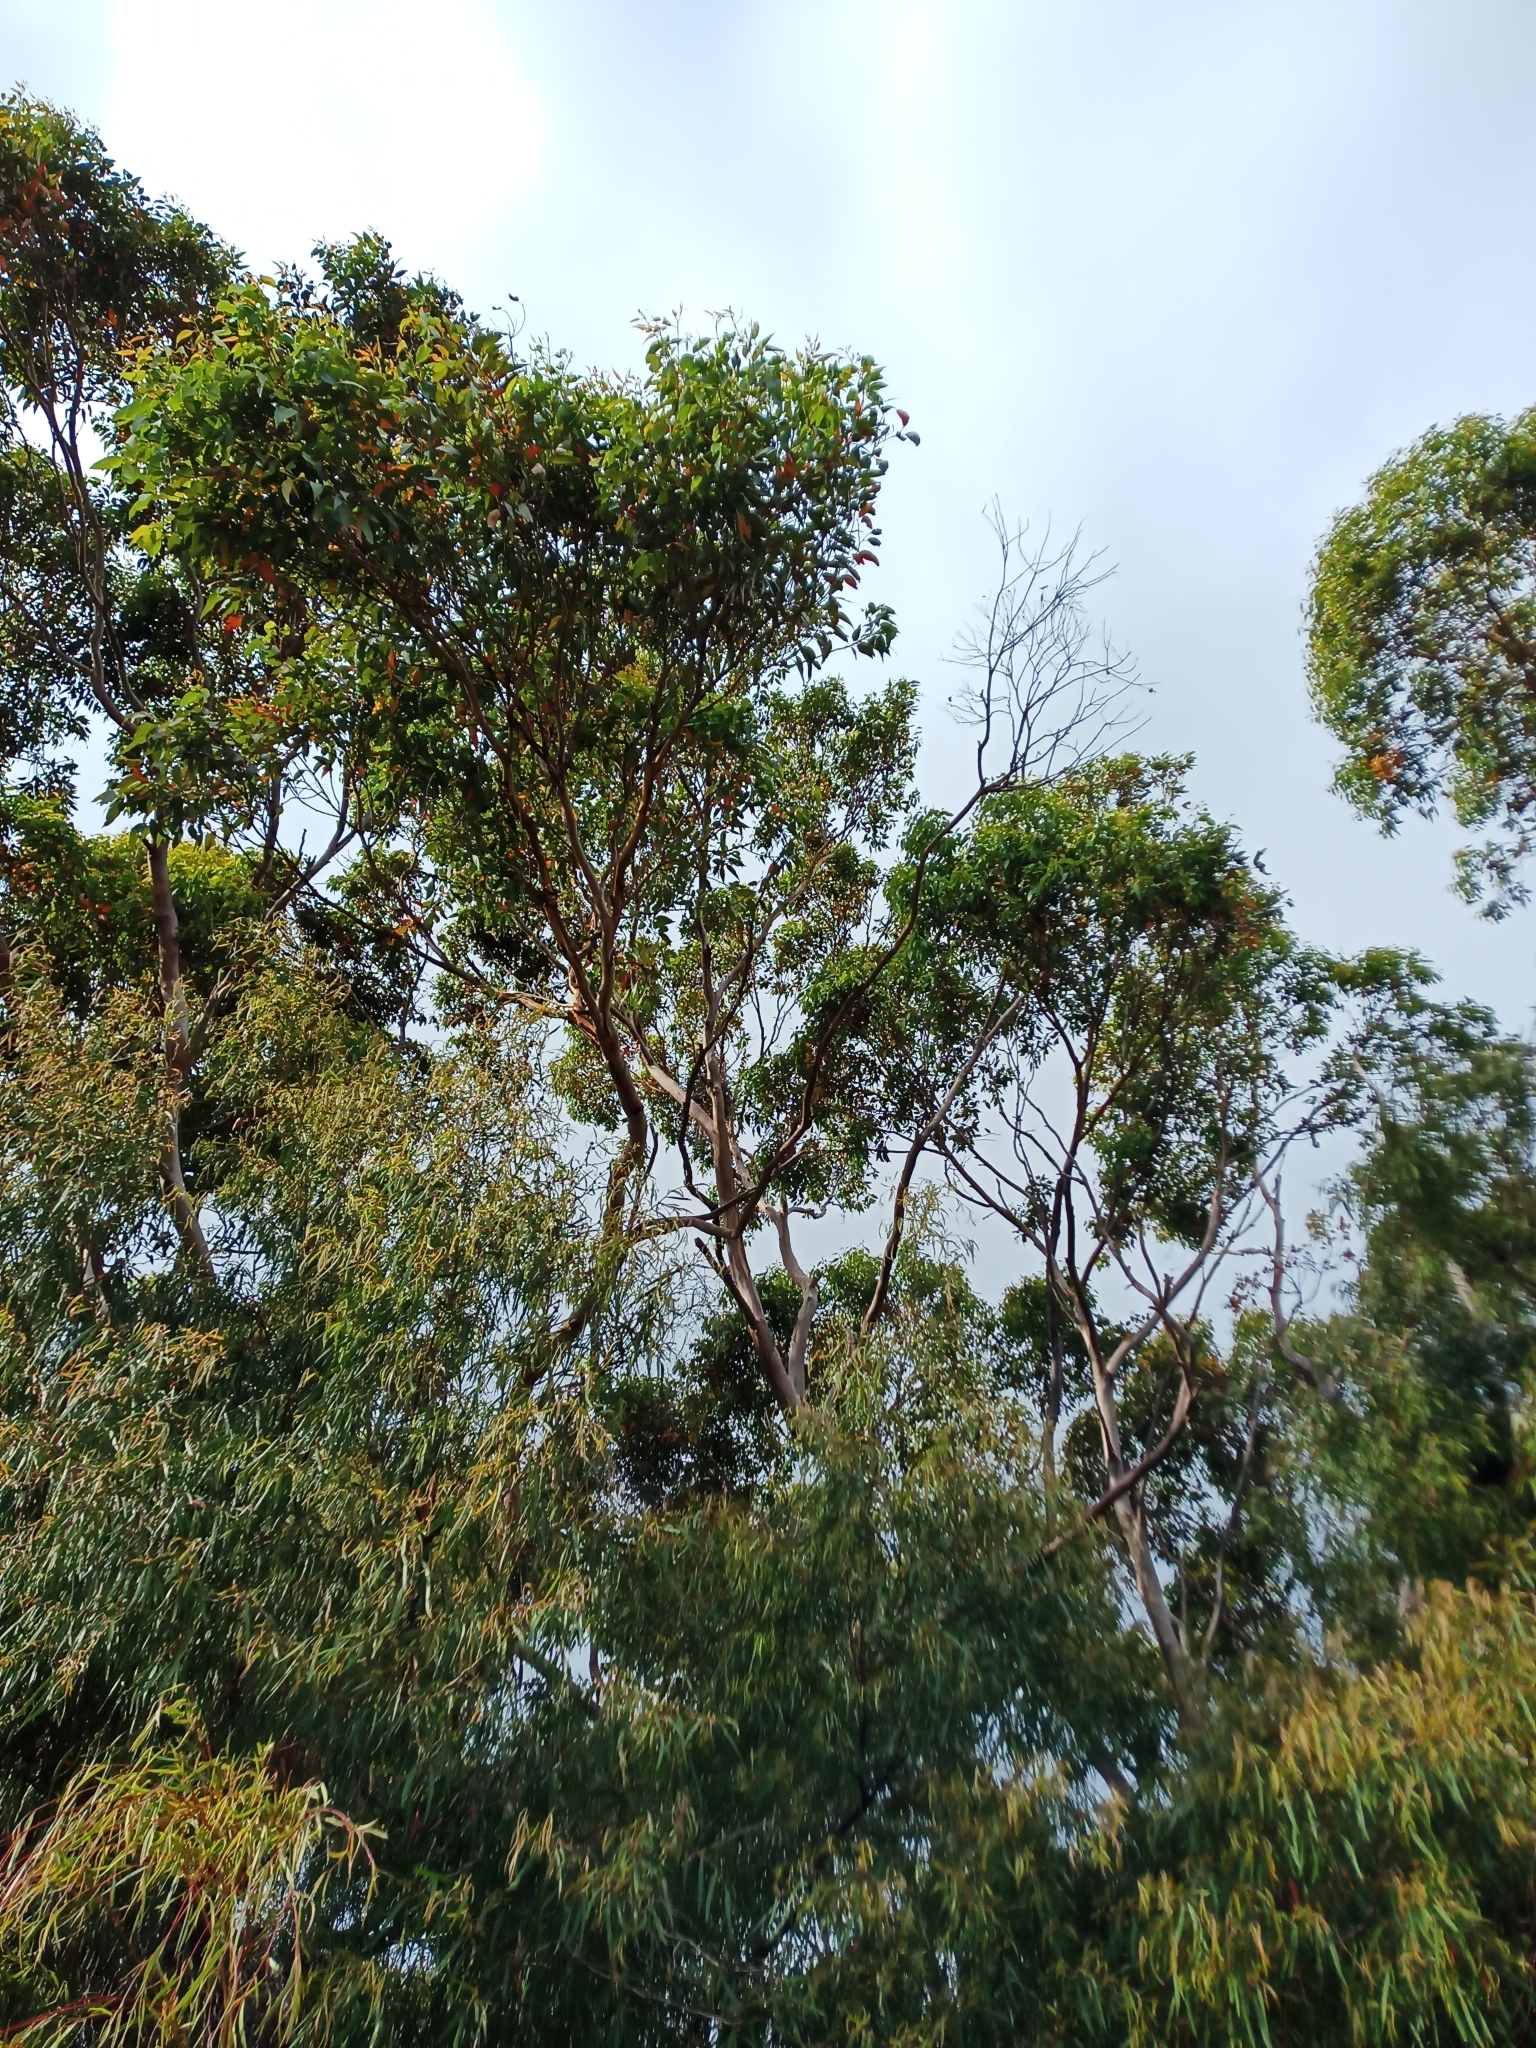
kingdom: Plantae
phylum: Tracheophyta
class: Magnoliopsida
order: Myrtales
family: Myrtaceae
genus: Eucalyptus
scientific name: Eucalyptus diversicolor
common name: Karri
